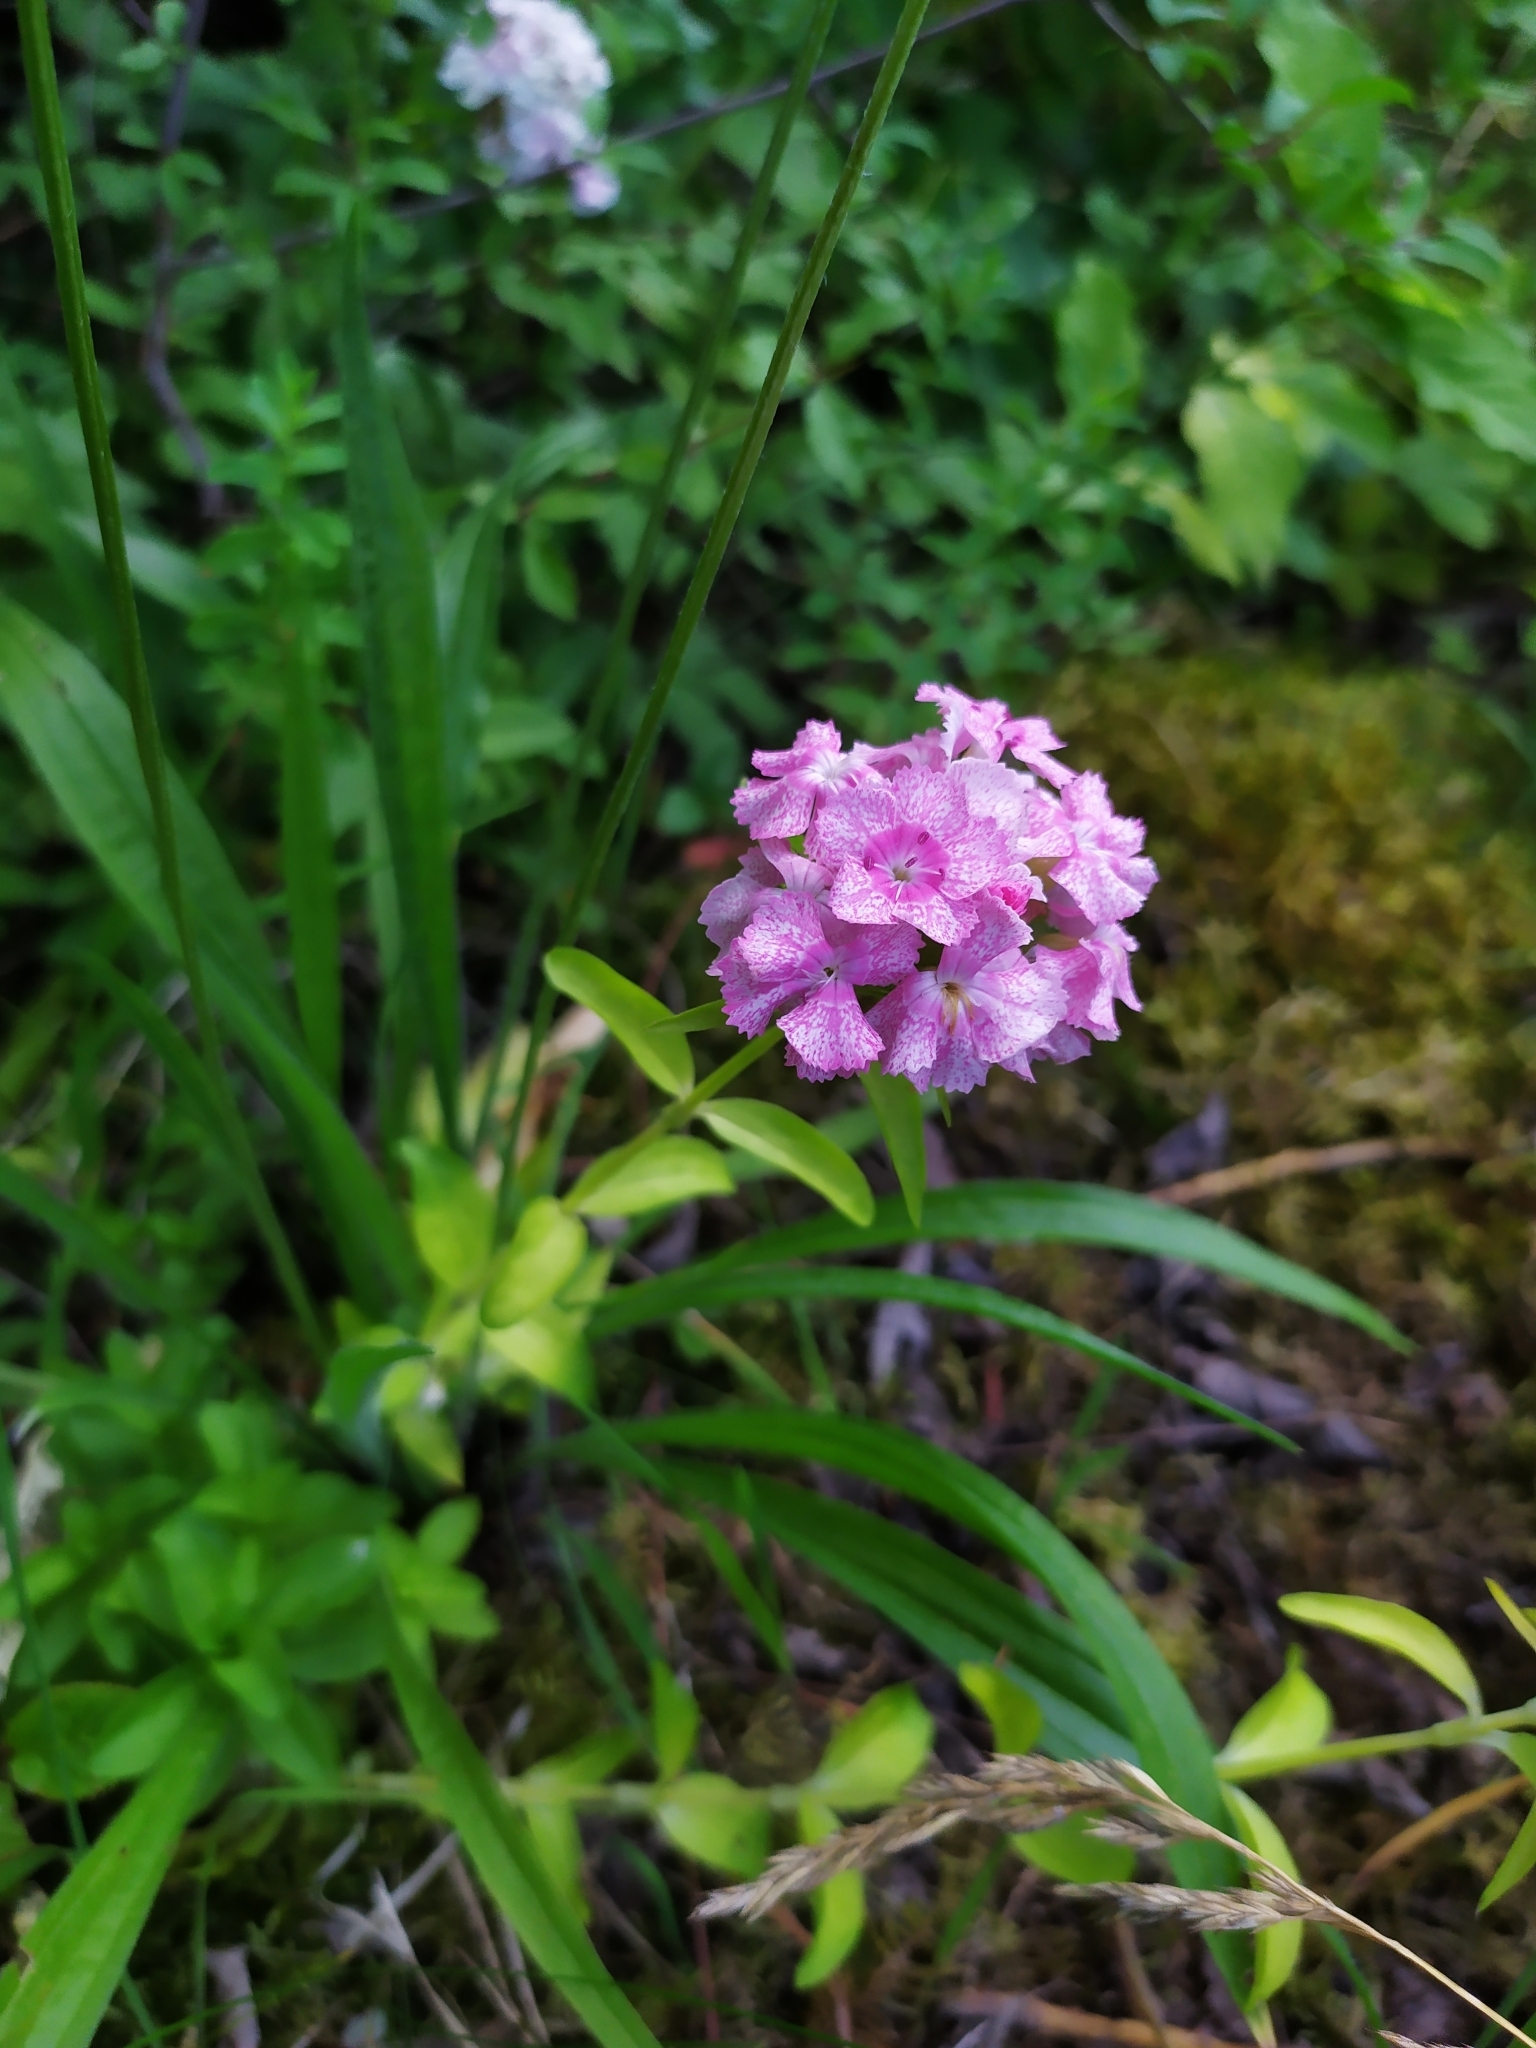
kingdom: Plantae
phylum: Tracheophyta
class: Magnoliopsida
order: Caryophyllales
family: Caryophyllaceae
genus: Dianthus
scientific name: Dianthus barbatus
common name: Sweet-william
